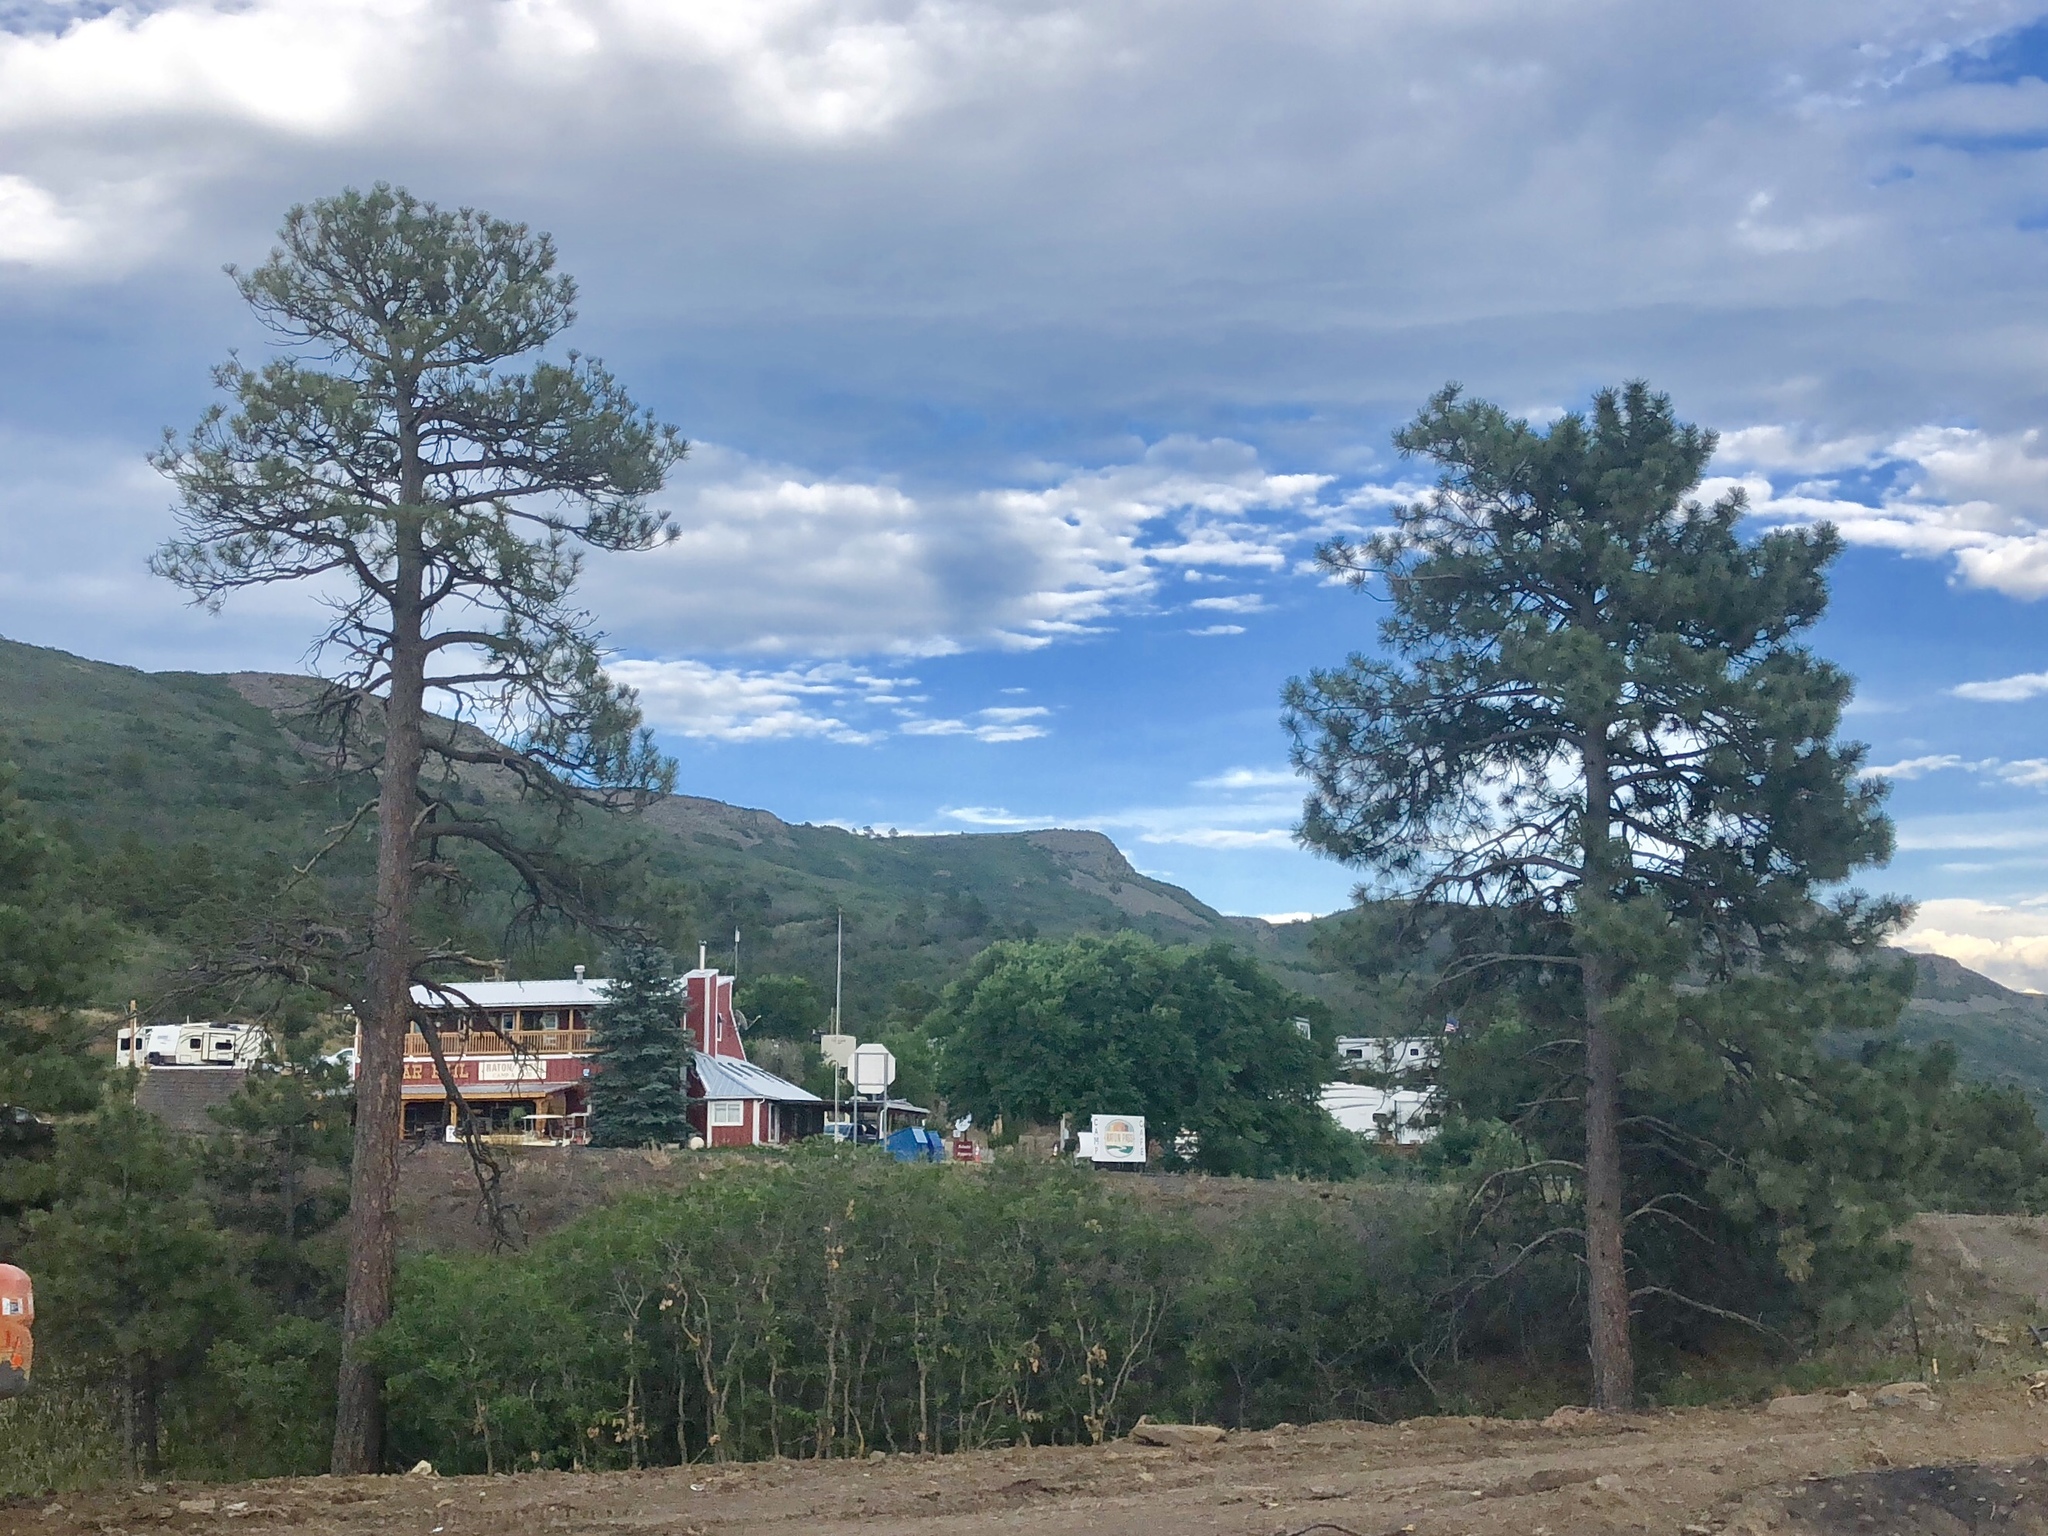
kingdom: Plantae
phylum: Tracheophyta
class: Pinopsida
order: Pinales
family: Pinaceae
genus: Pinus
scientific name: Pinus ponderosa
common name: Western yellow-pine
